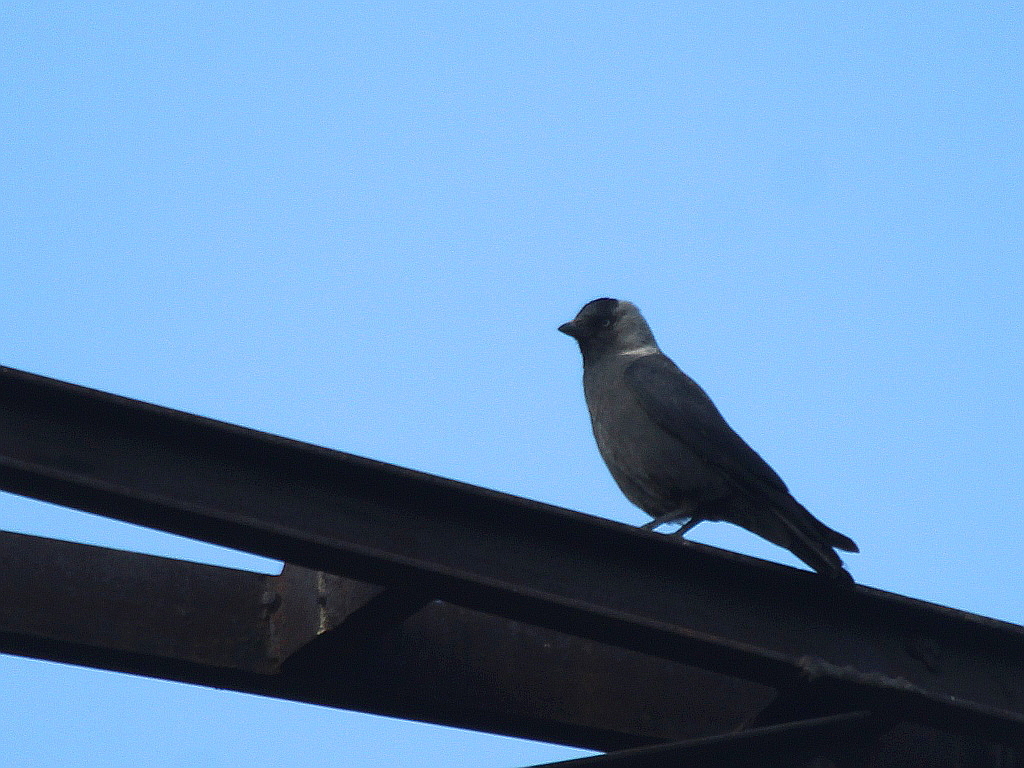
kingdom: Animalia
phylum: Chordata
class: Aves
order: Passeriformes
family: Corvidae
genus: Coloeus
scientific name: Coloeus monedula
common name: Western jackdaw
